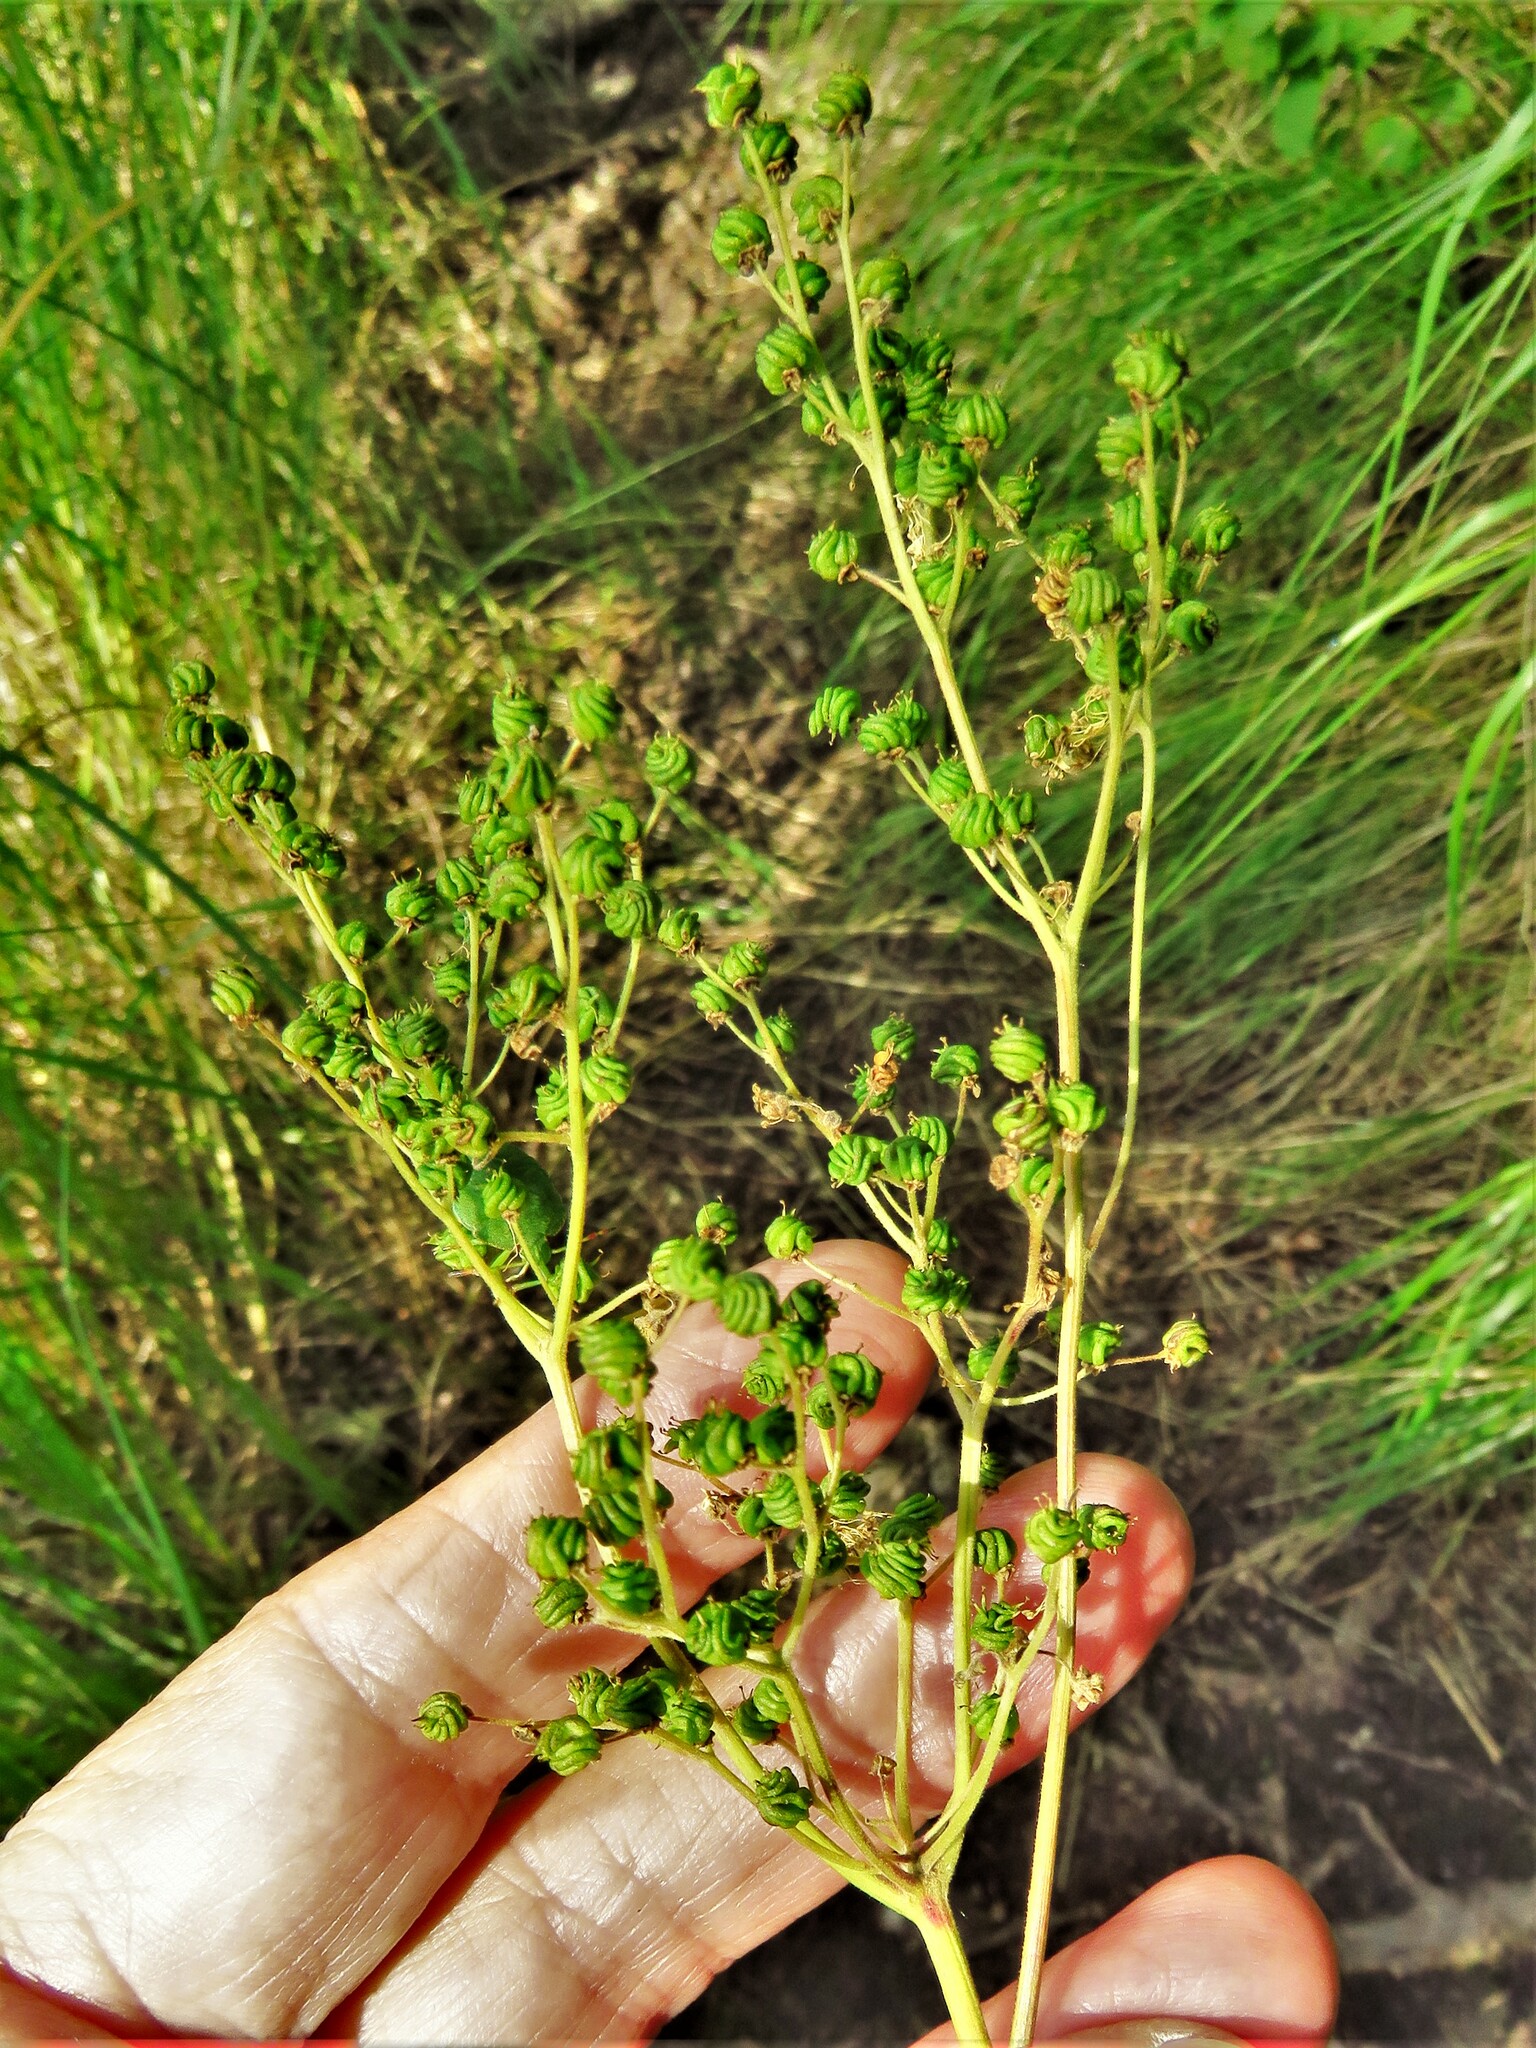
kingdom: Plantae
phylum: Tracheophyta
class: Magnoliopsida
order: Rosales
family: Rosaceae
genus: Filipendula
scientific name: Filipendula ulmaria
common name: Meadowsweet
